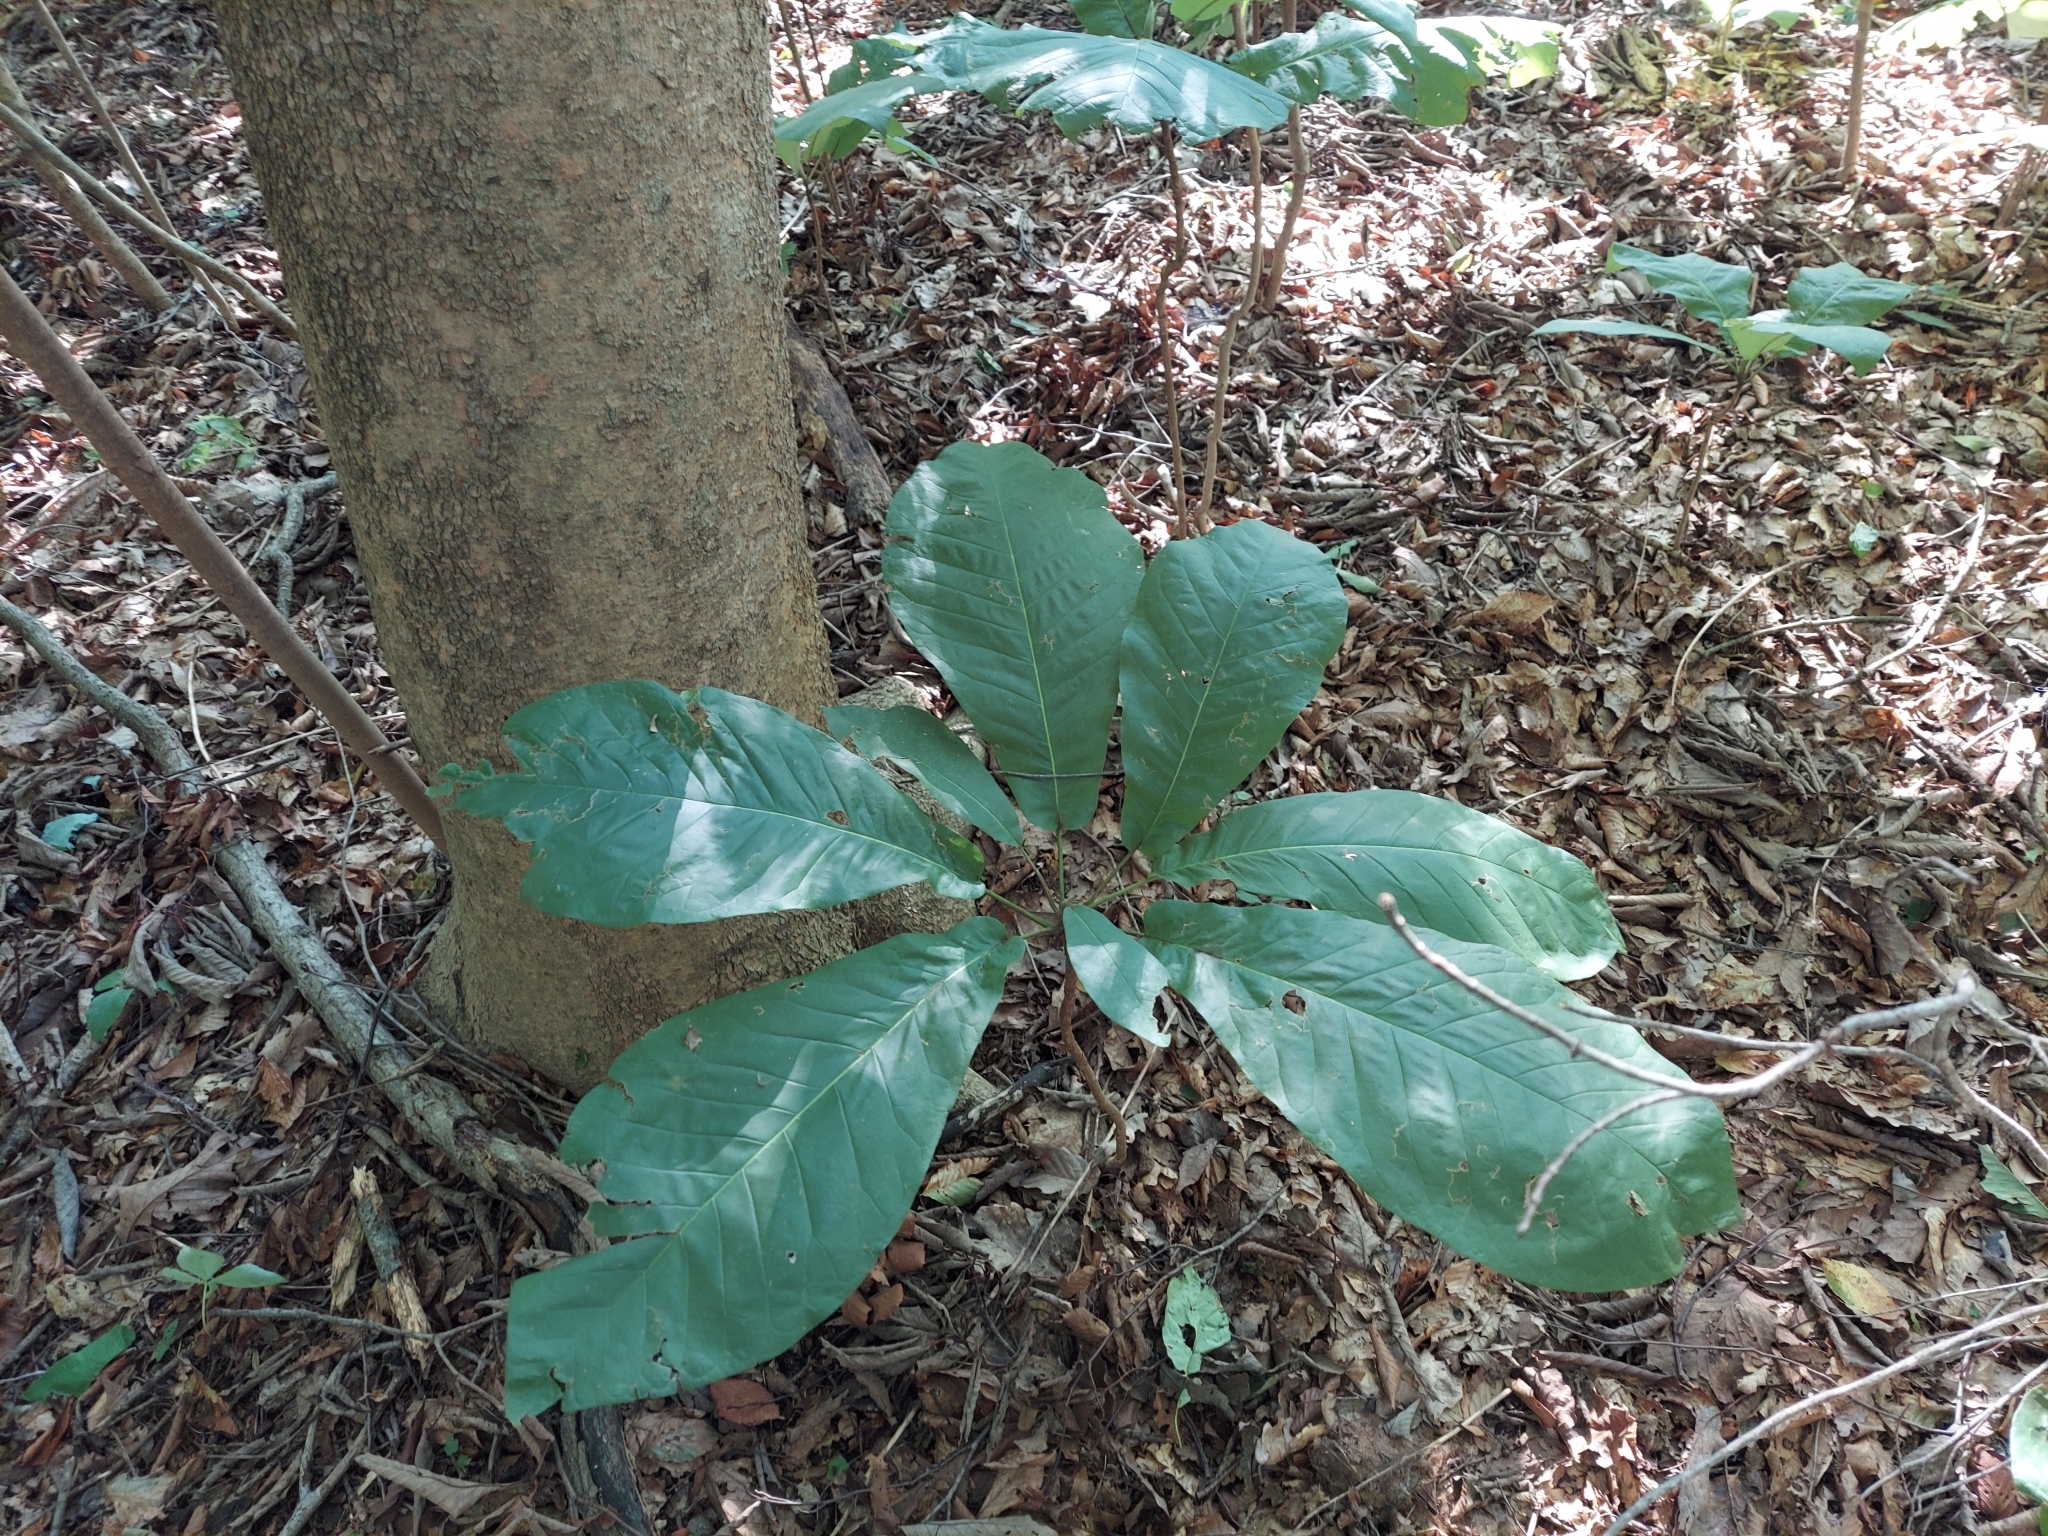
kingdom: Plantae
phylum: Tracheophyta
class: Magnoliopsida
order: Magnoliales
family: Magnoliaceae
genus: Magnolia
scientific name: Magnolia macrophylla
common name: Big-leaf magnolia
